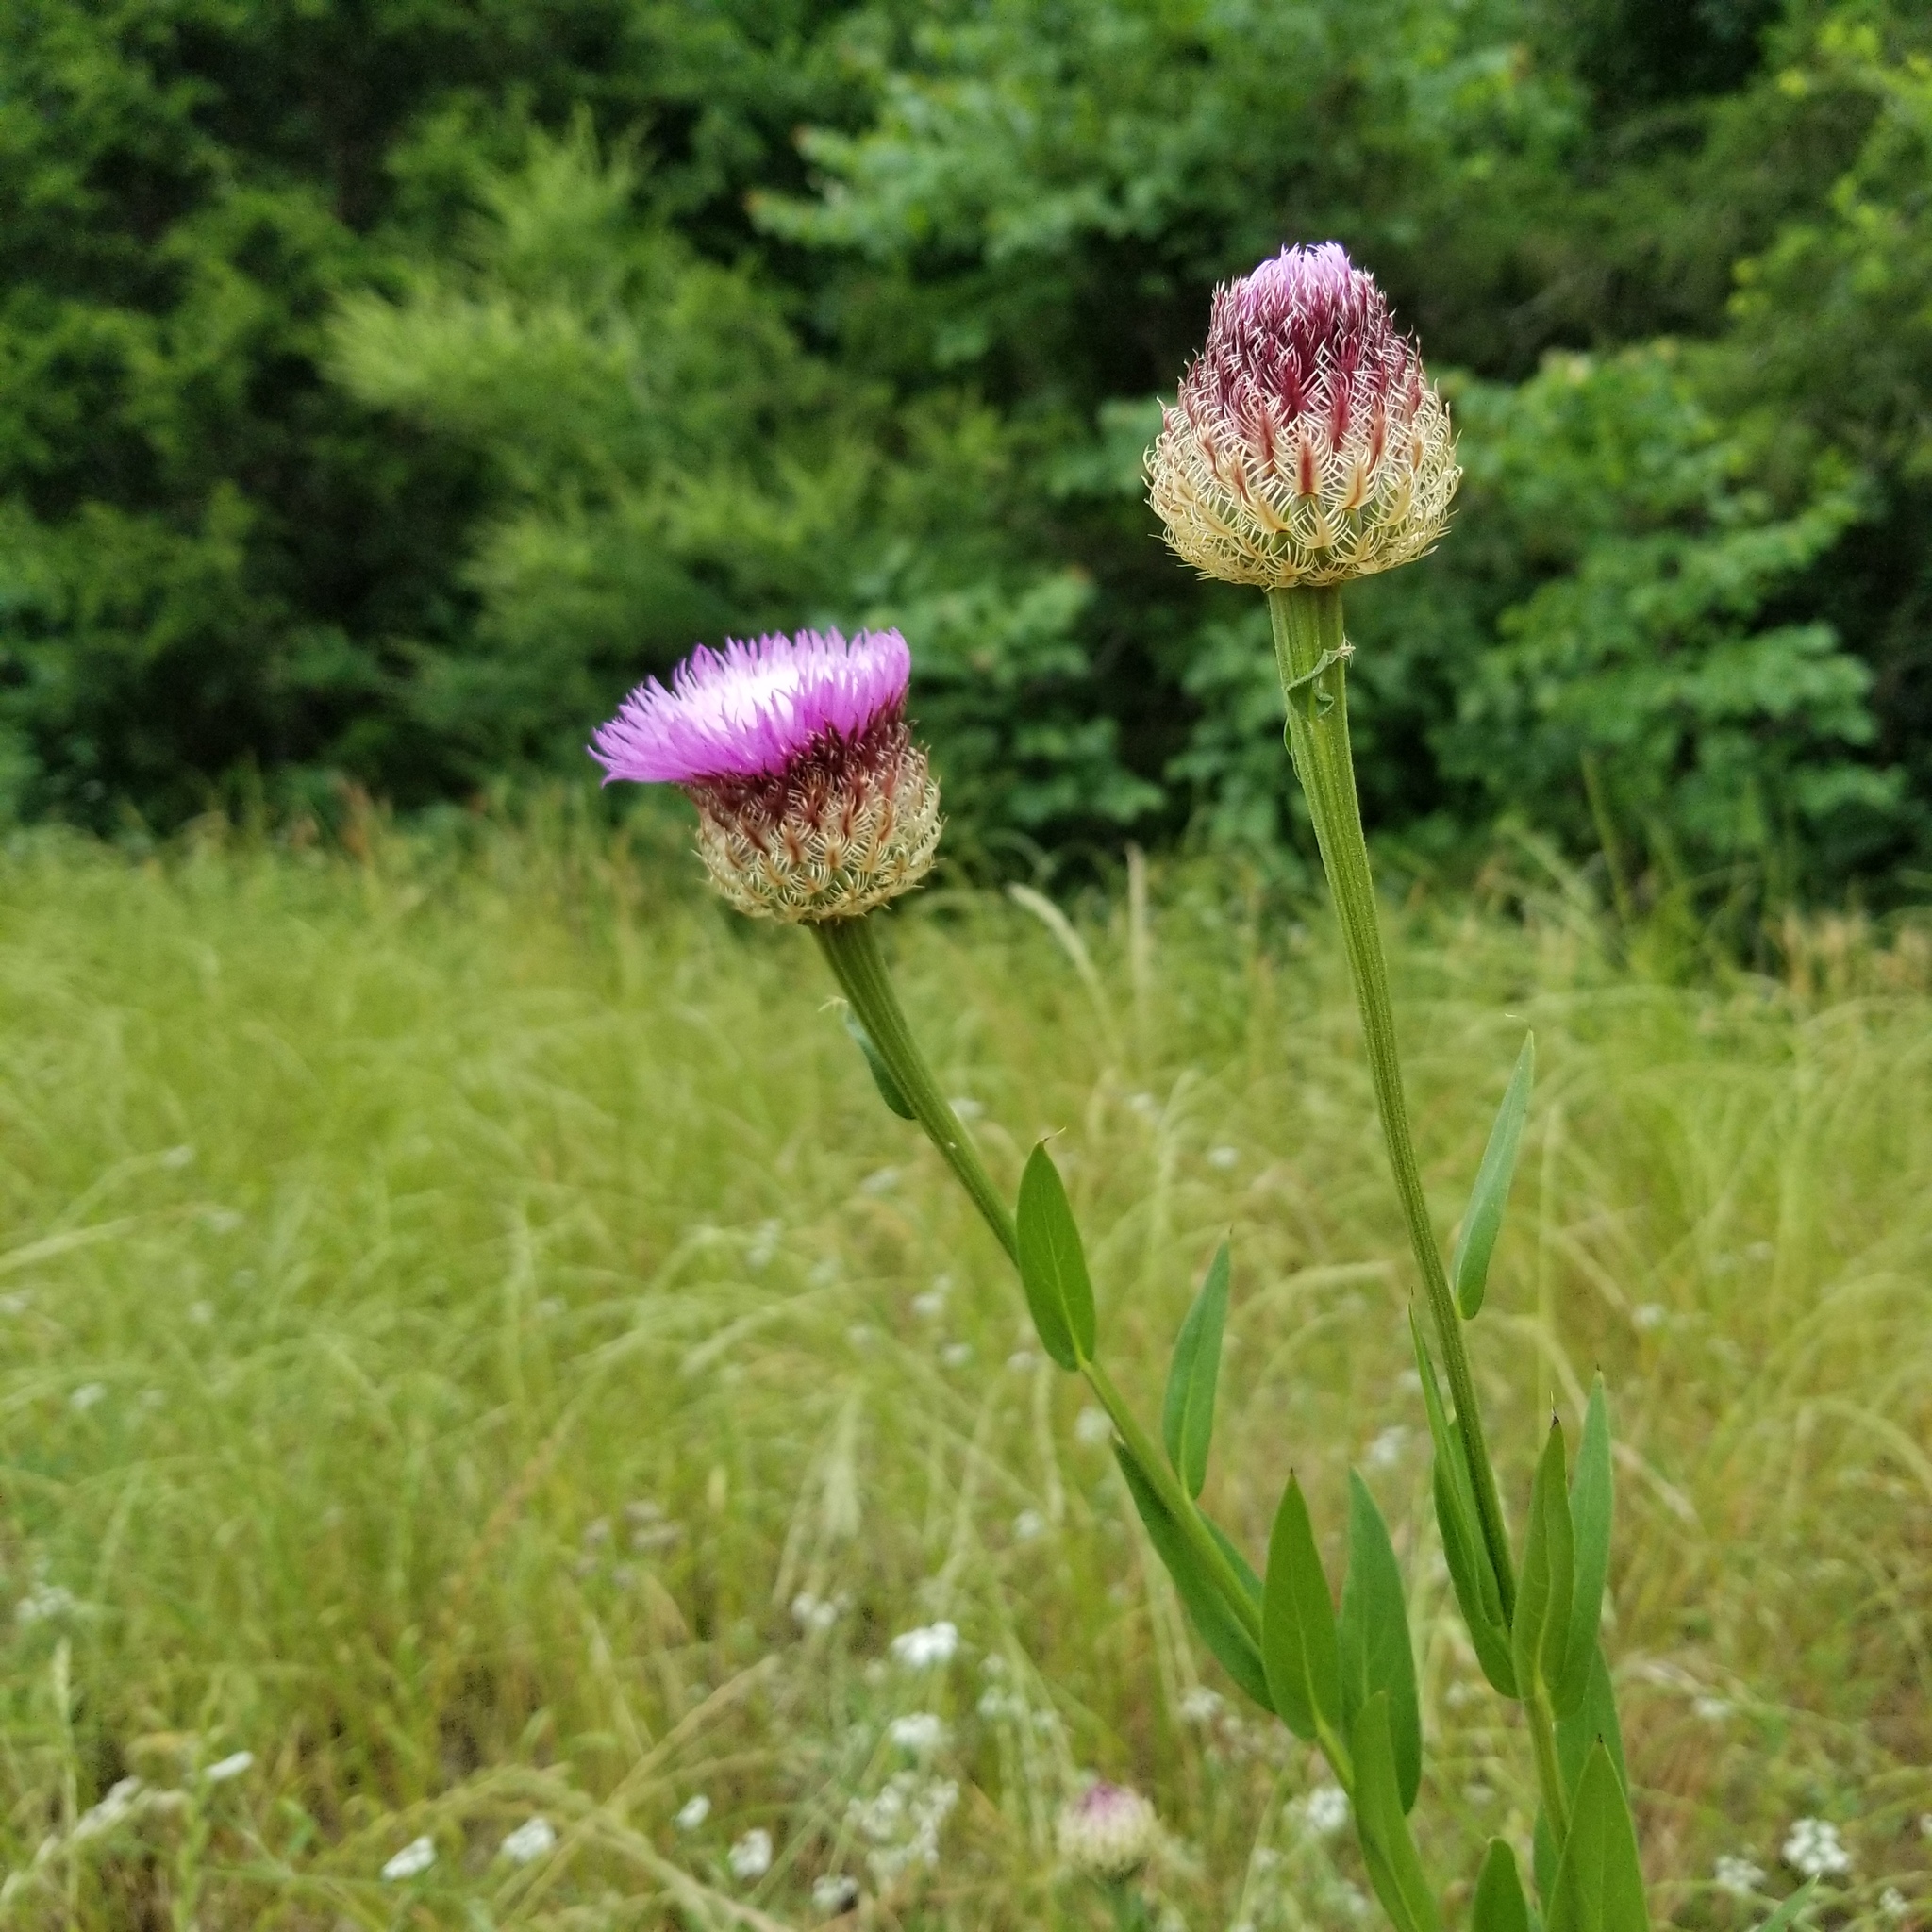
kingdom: Plantae
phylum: Tracheophyta
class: Magnoliopsida
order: Asterales
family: Asteraceae
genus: Plectocephalus
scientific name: Plectocephalus americanus
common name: American basket-flower
